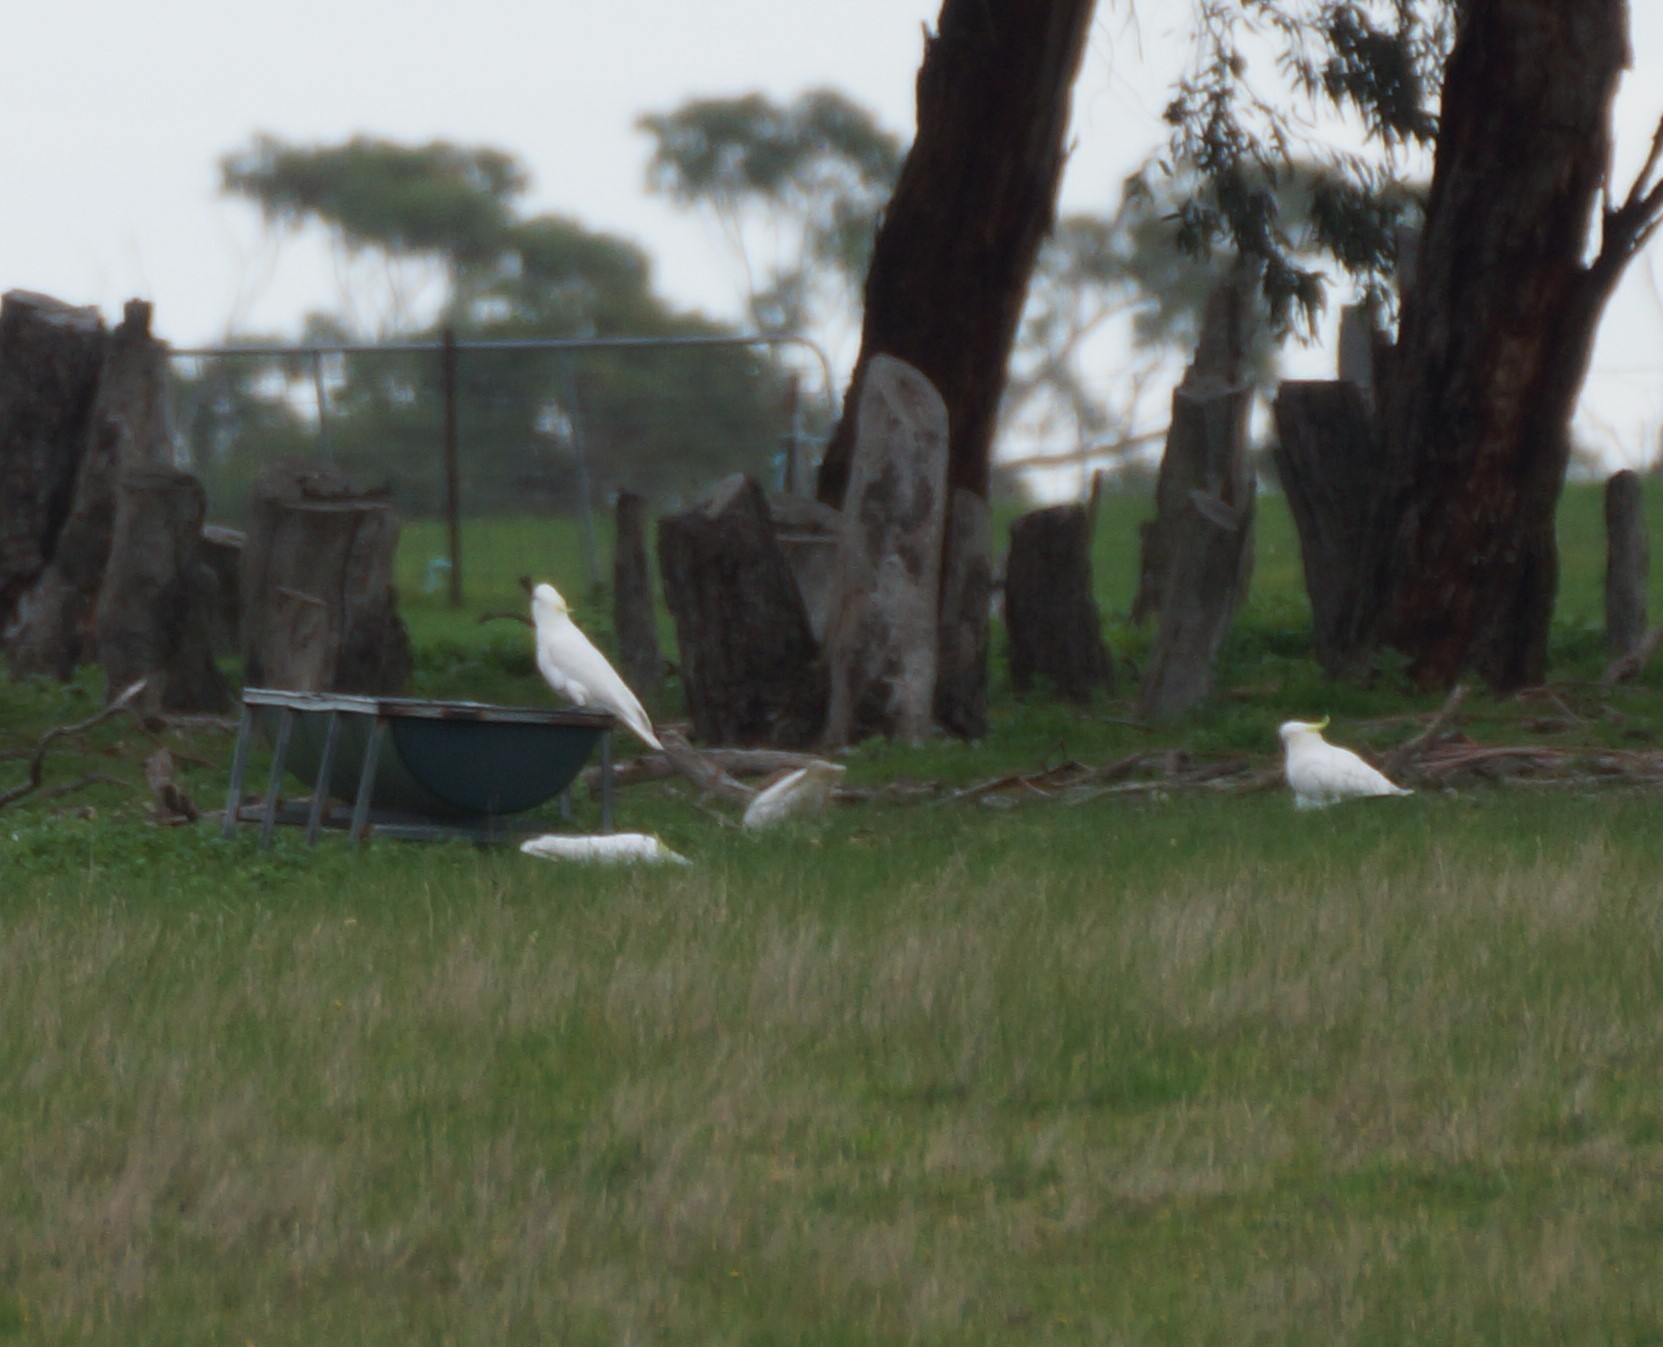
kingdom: Animalia
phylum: Chordata
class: Aves
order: Psittaciformes
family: Psittacidae
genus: Cacatua
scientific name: Cacatua galerita
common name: Sulphur-crested cockatoo
